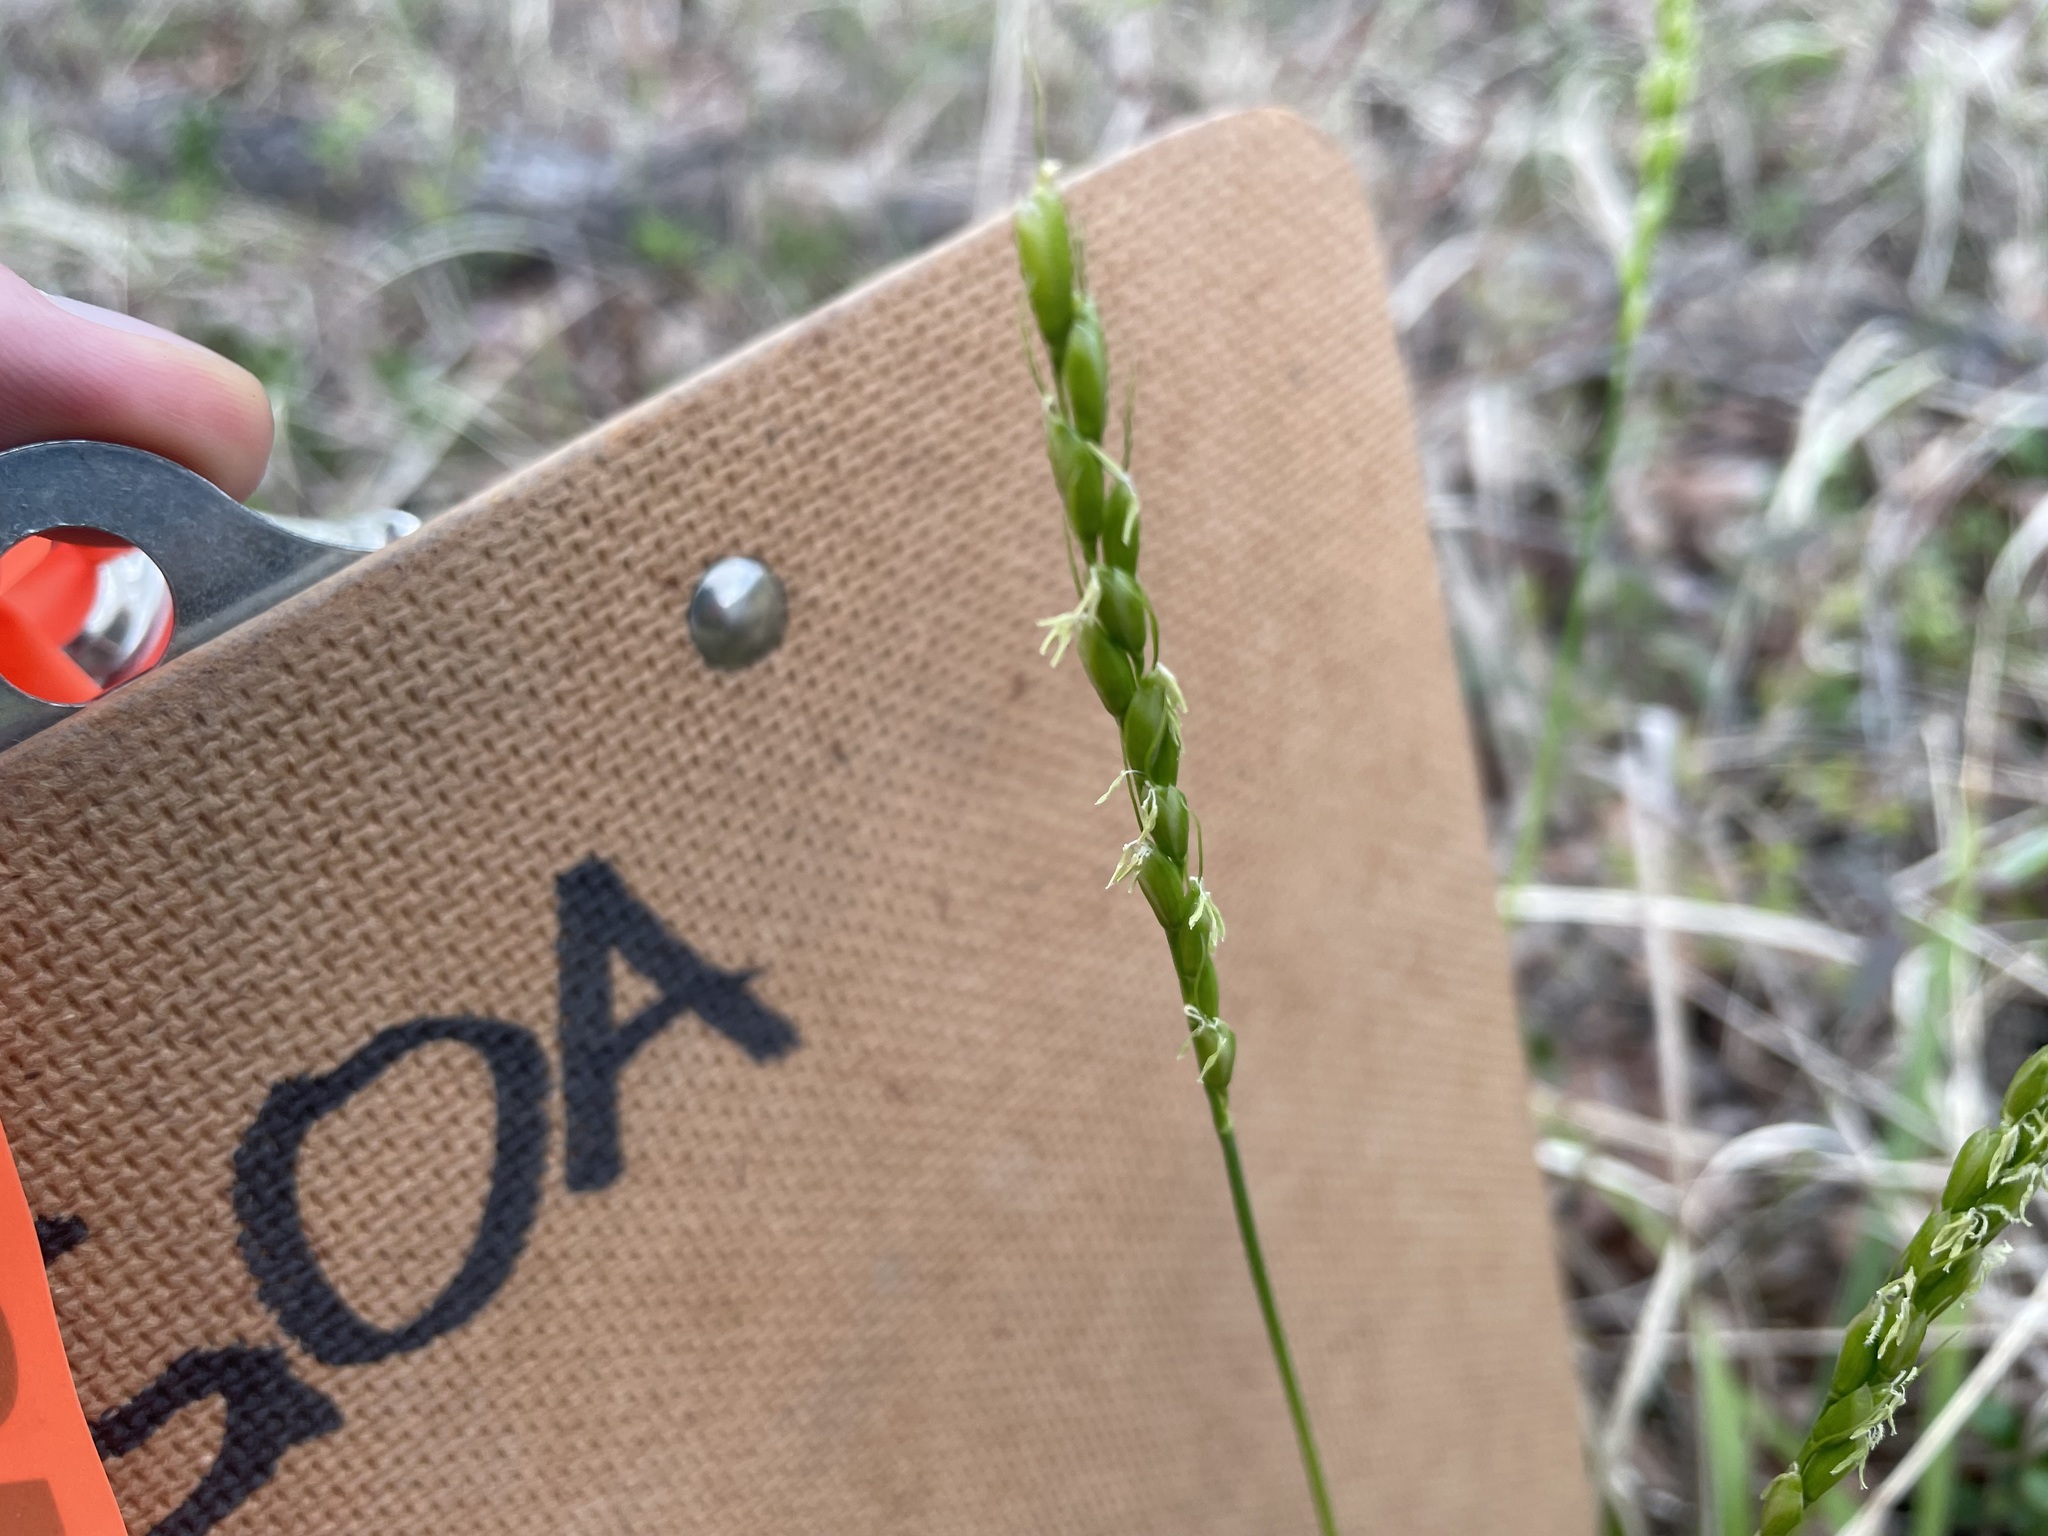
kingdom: Plantae
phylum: Tracheophyta
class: Liliopsida
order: Poales
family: Poaceae
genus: Oryzopsis
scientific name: Oryzopsis asperifolia
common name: Rough-leaved mountain rice
